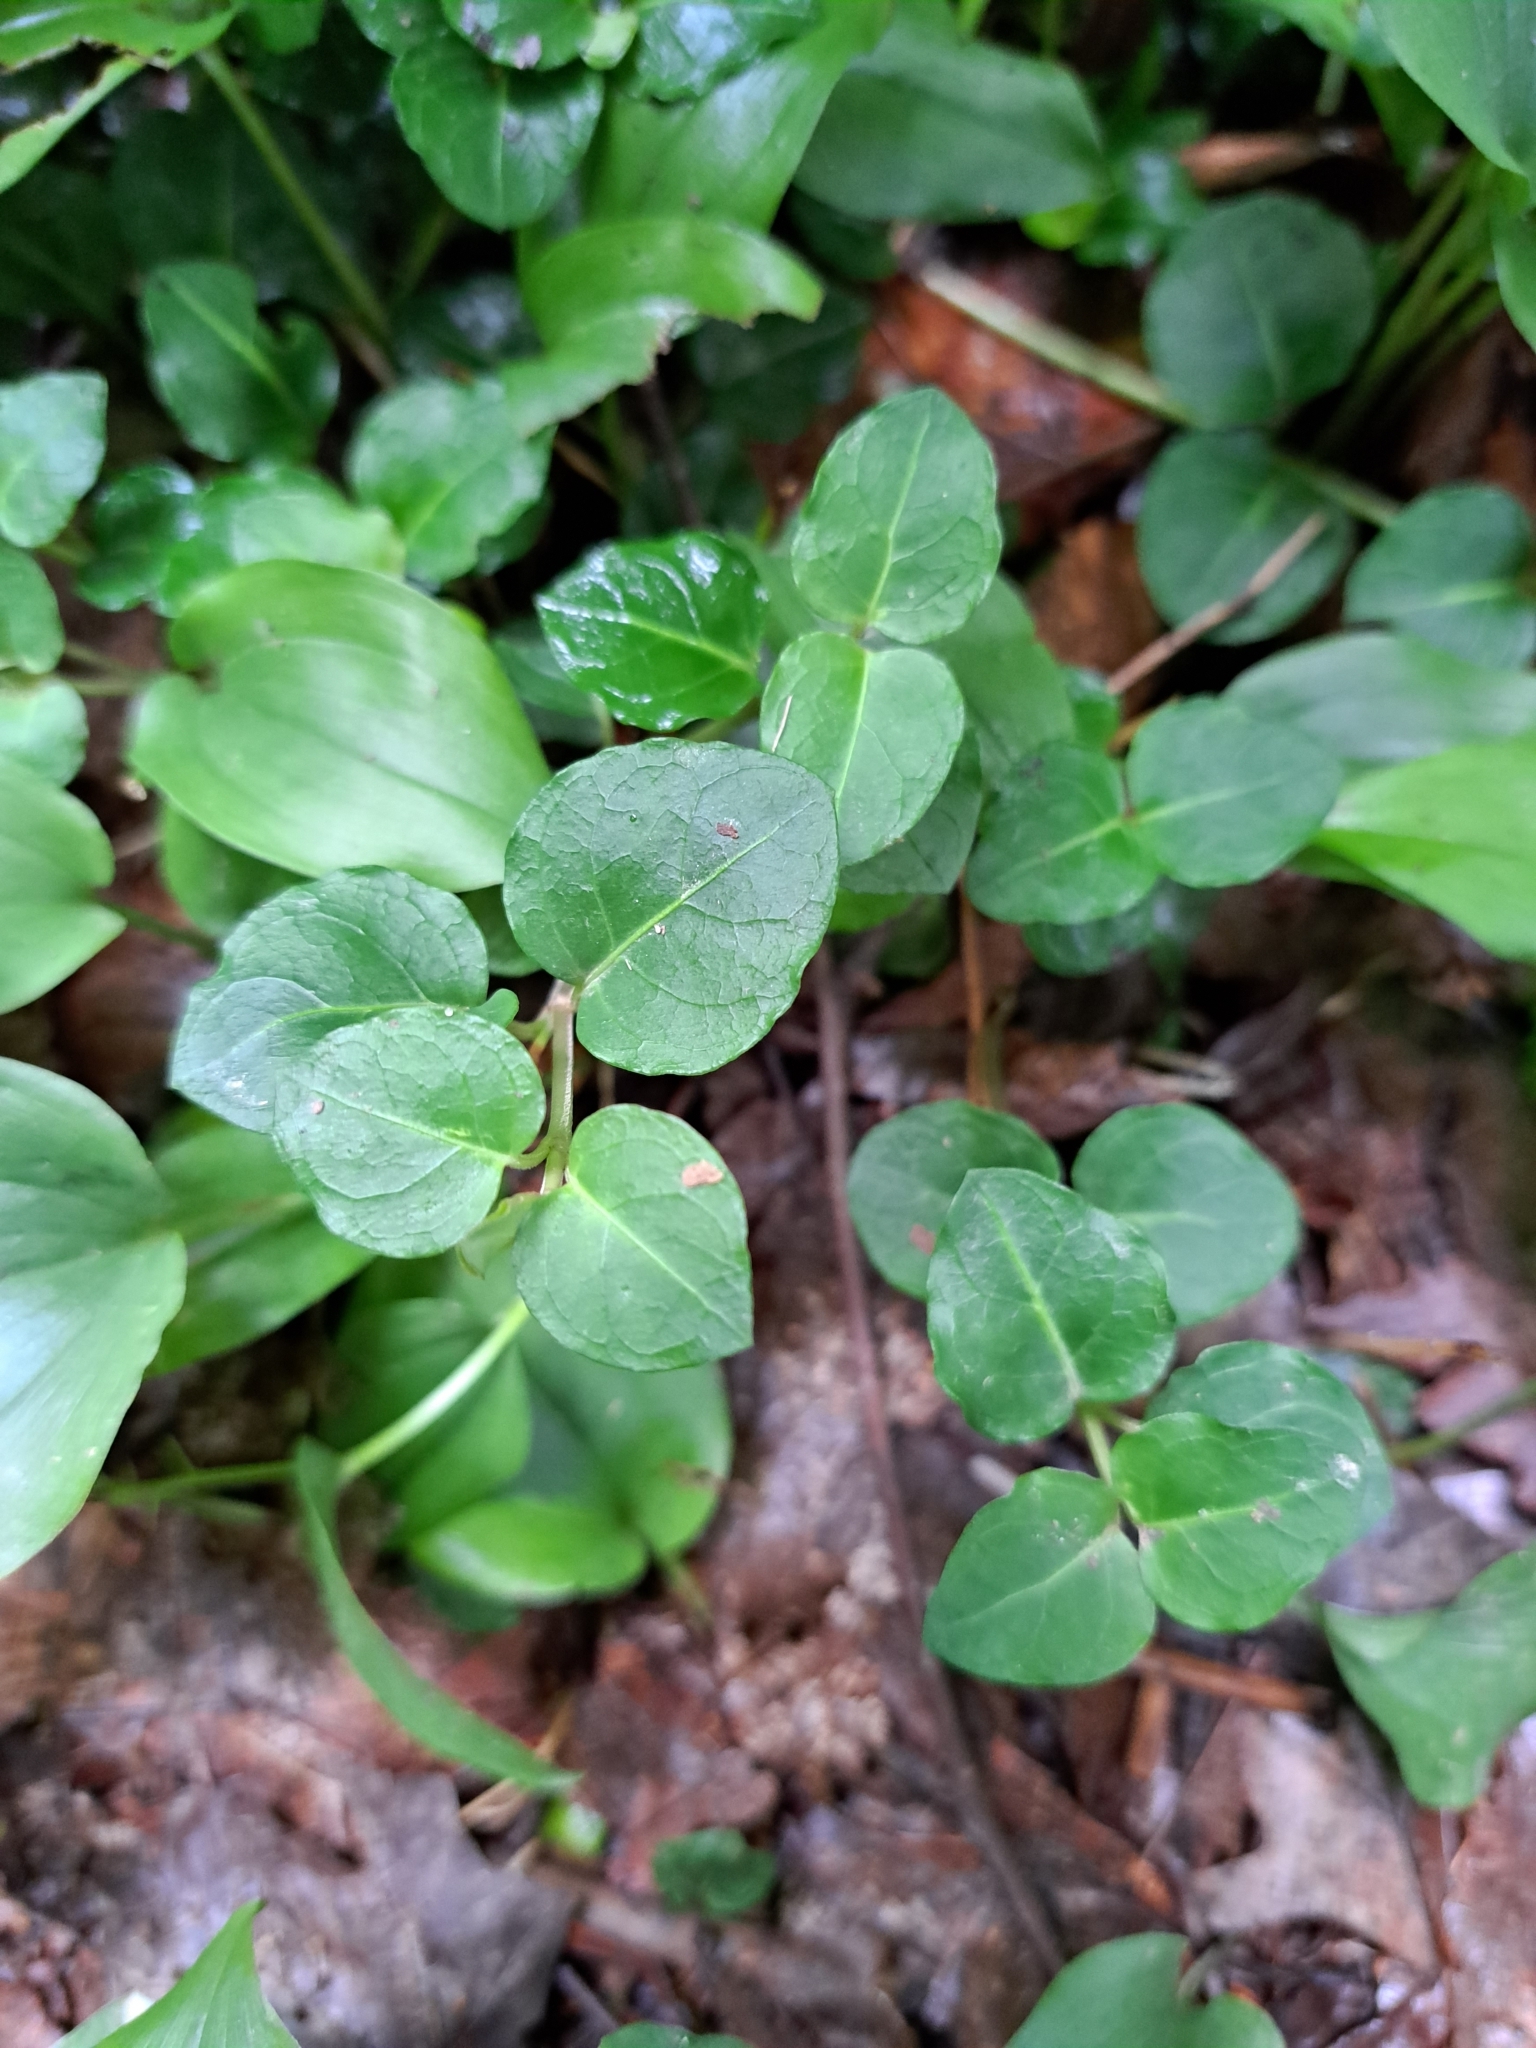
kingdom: Plantae
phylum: Tracheophyta
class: Magnoliopsida
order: Gentianales
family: Rubiaceae
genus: Mitchella
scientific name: Mitchella repens
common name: Partridge-berry
